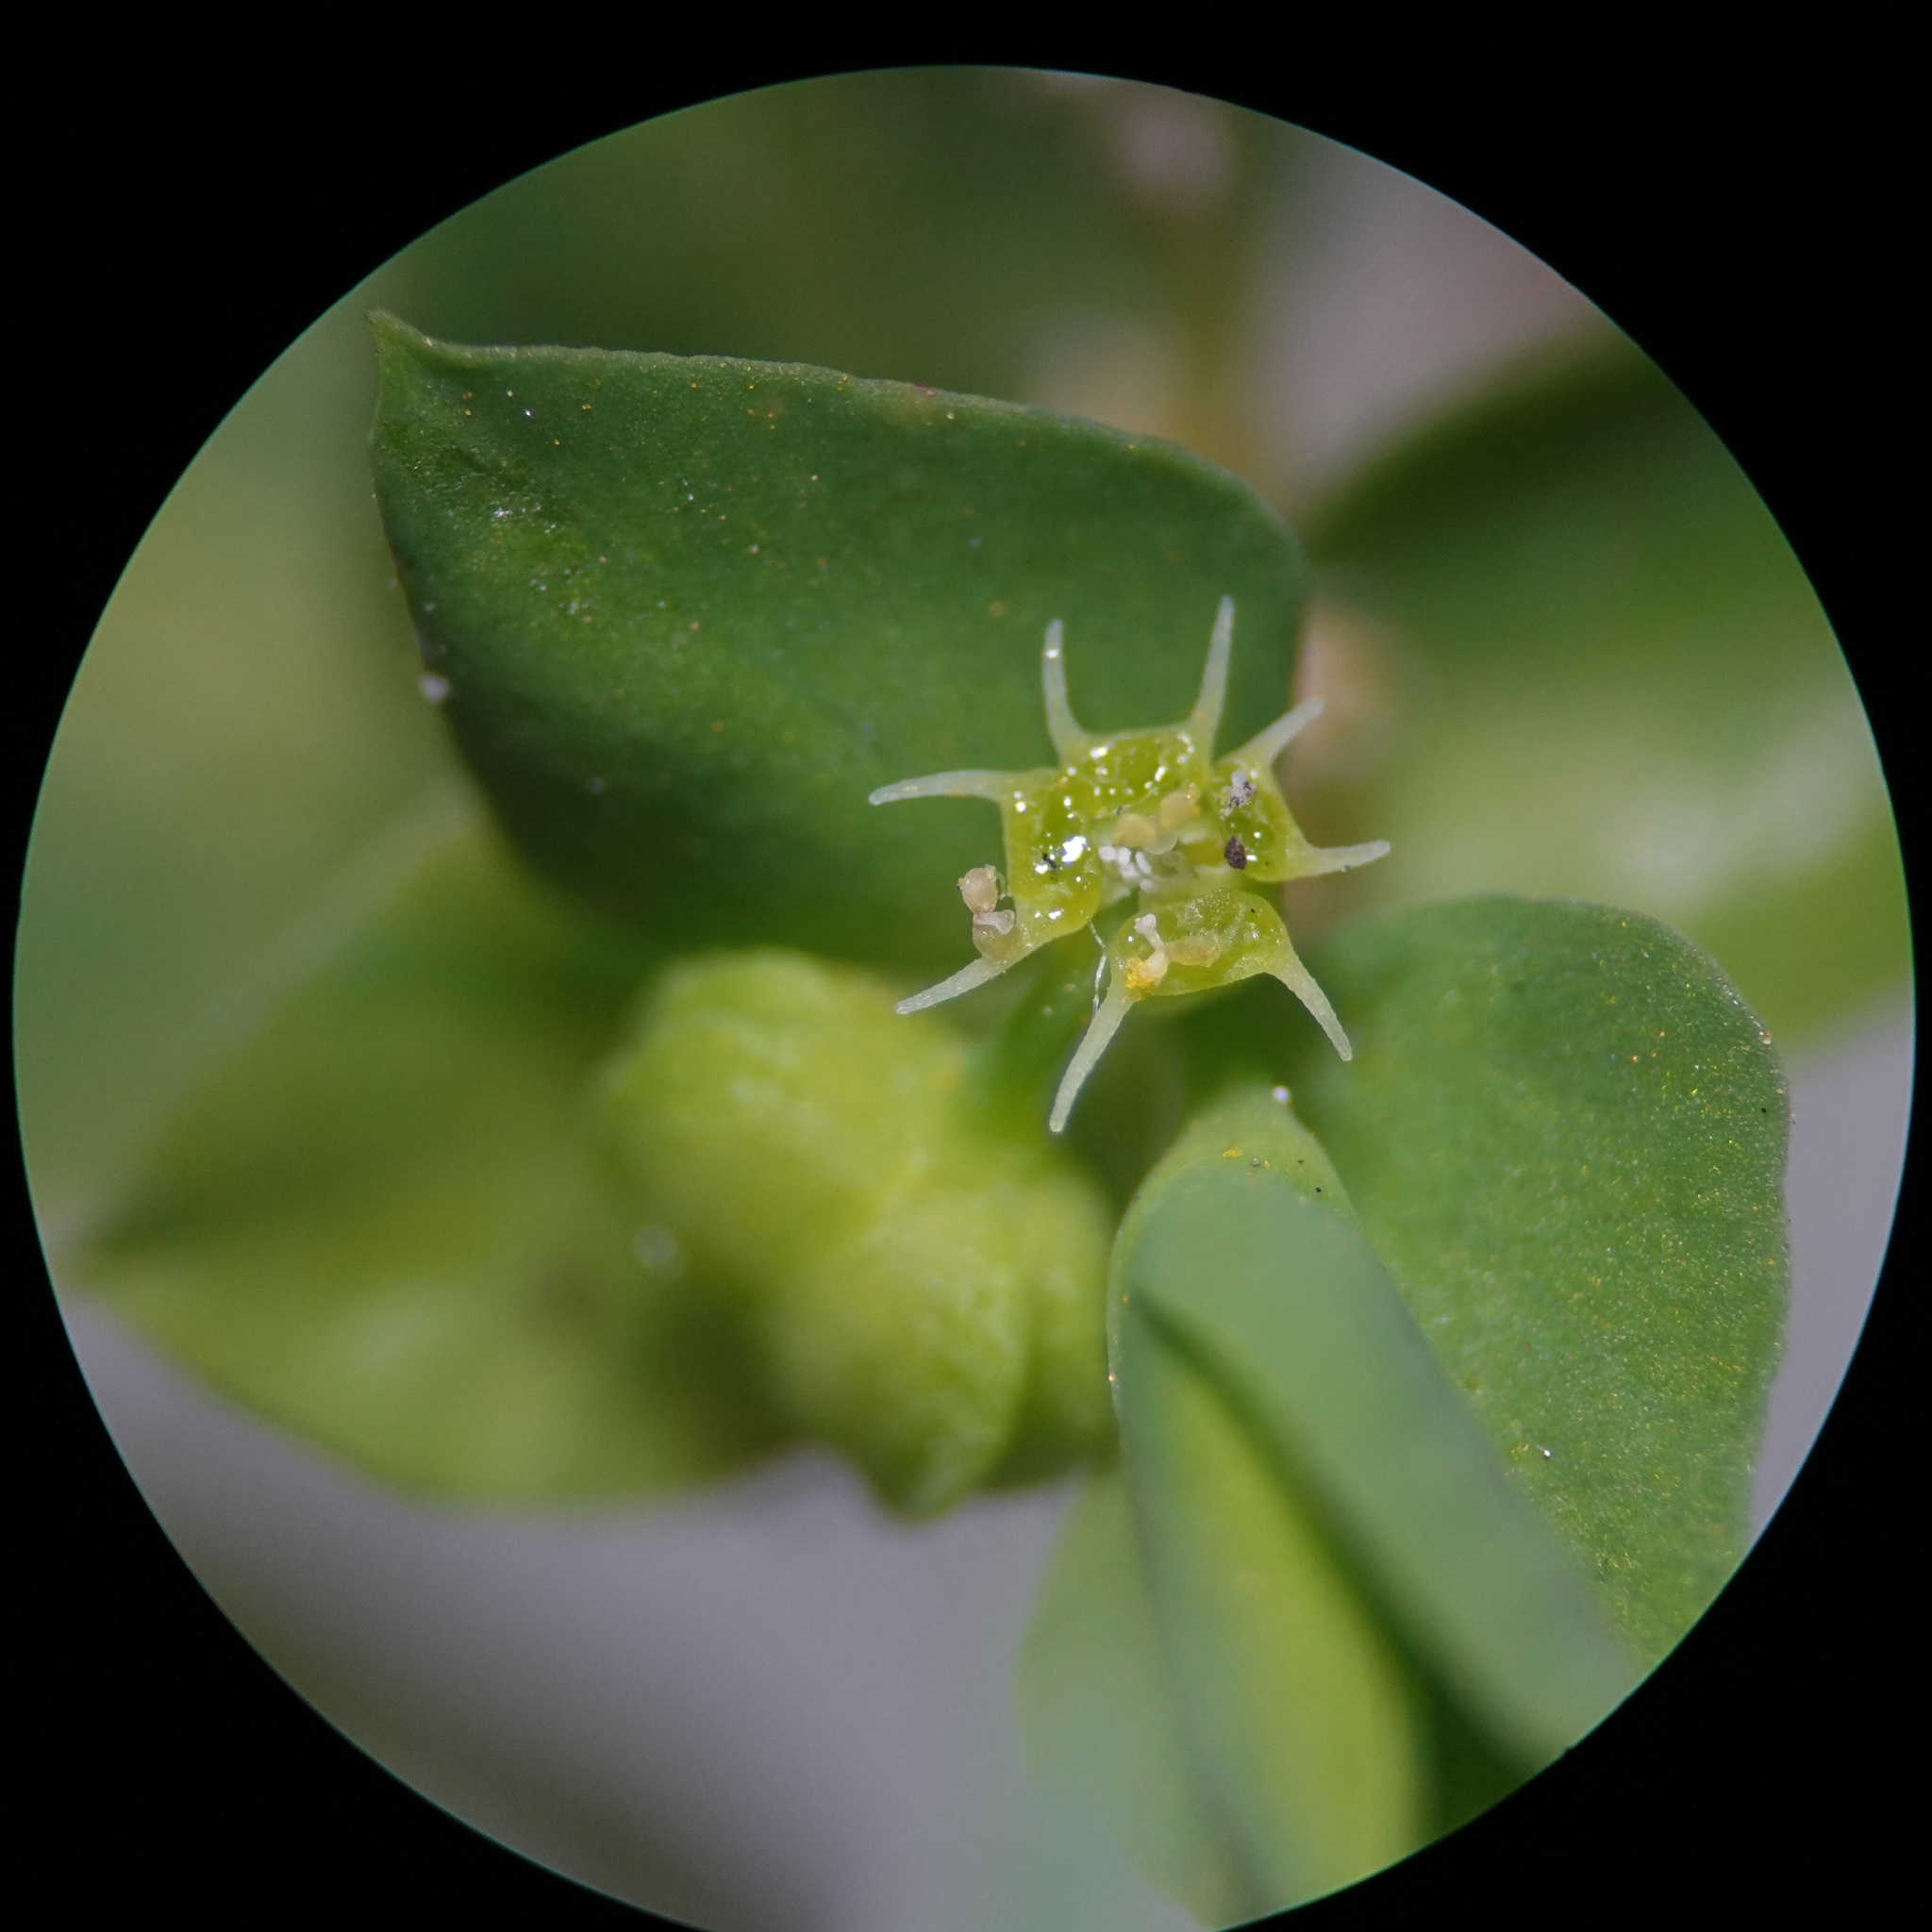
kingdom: Plantae
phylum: Tracheophyta
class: Magnoliopsida
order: Malpighiales
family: Euphorbiaceae
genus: Euphorbia
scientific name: Euphorbia peplus
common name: Petty spurge
